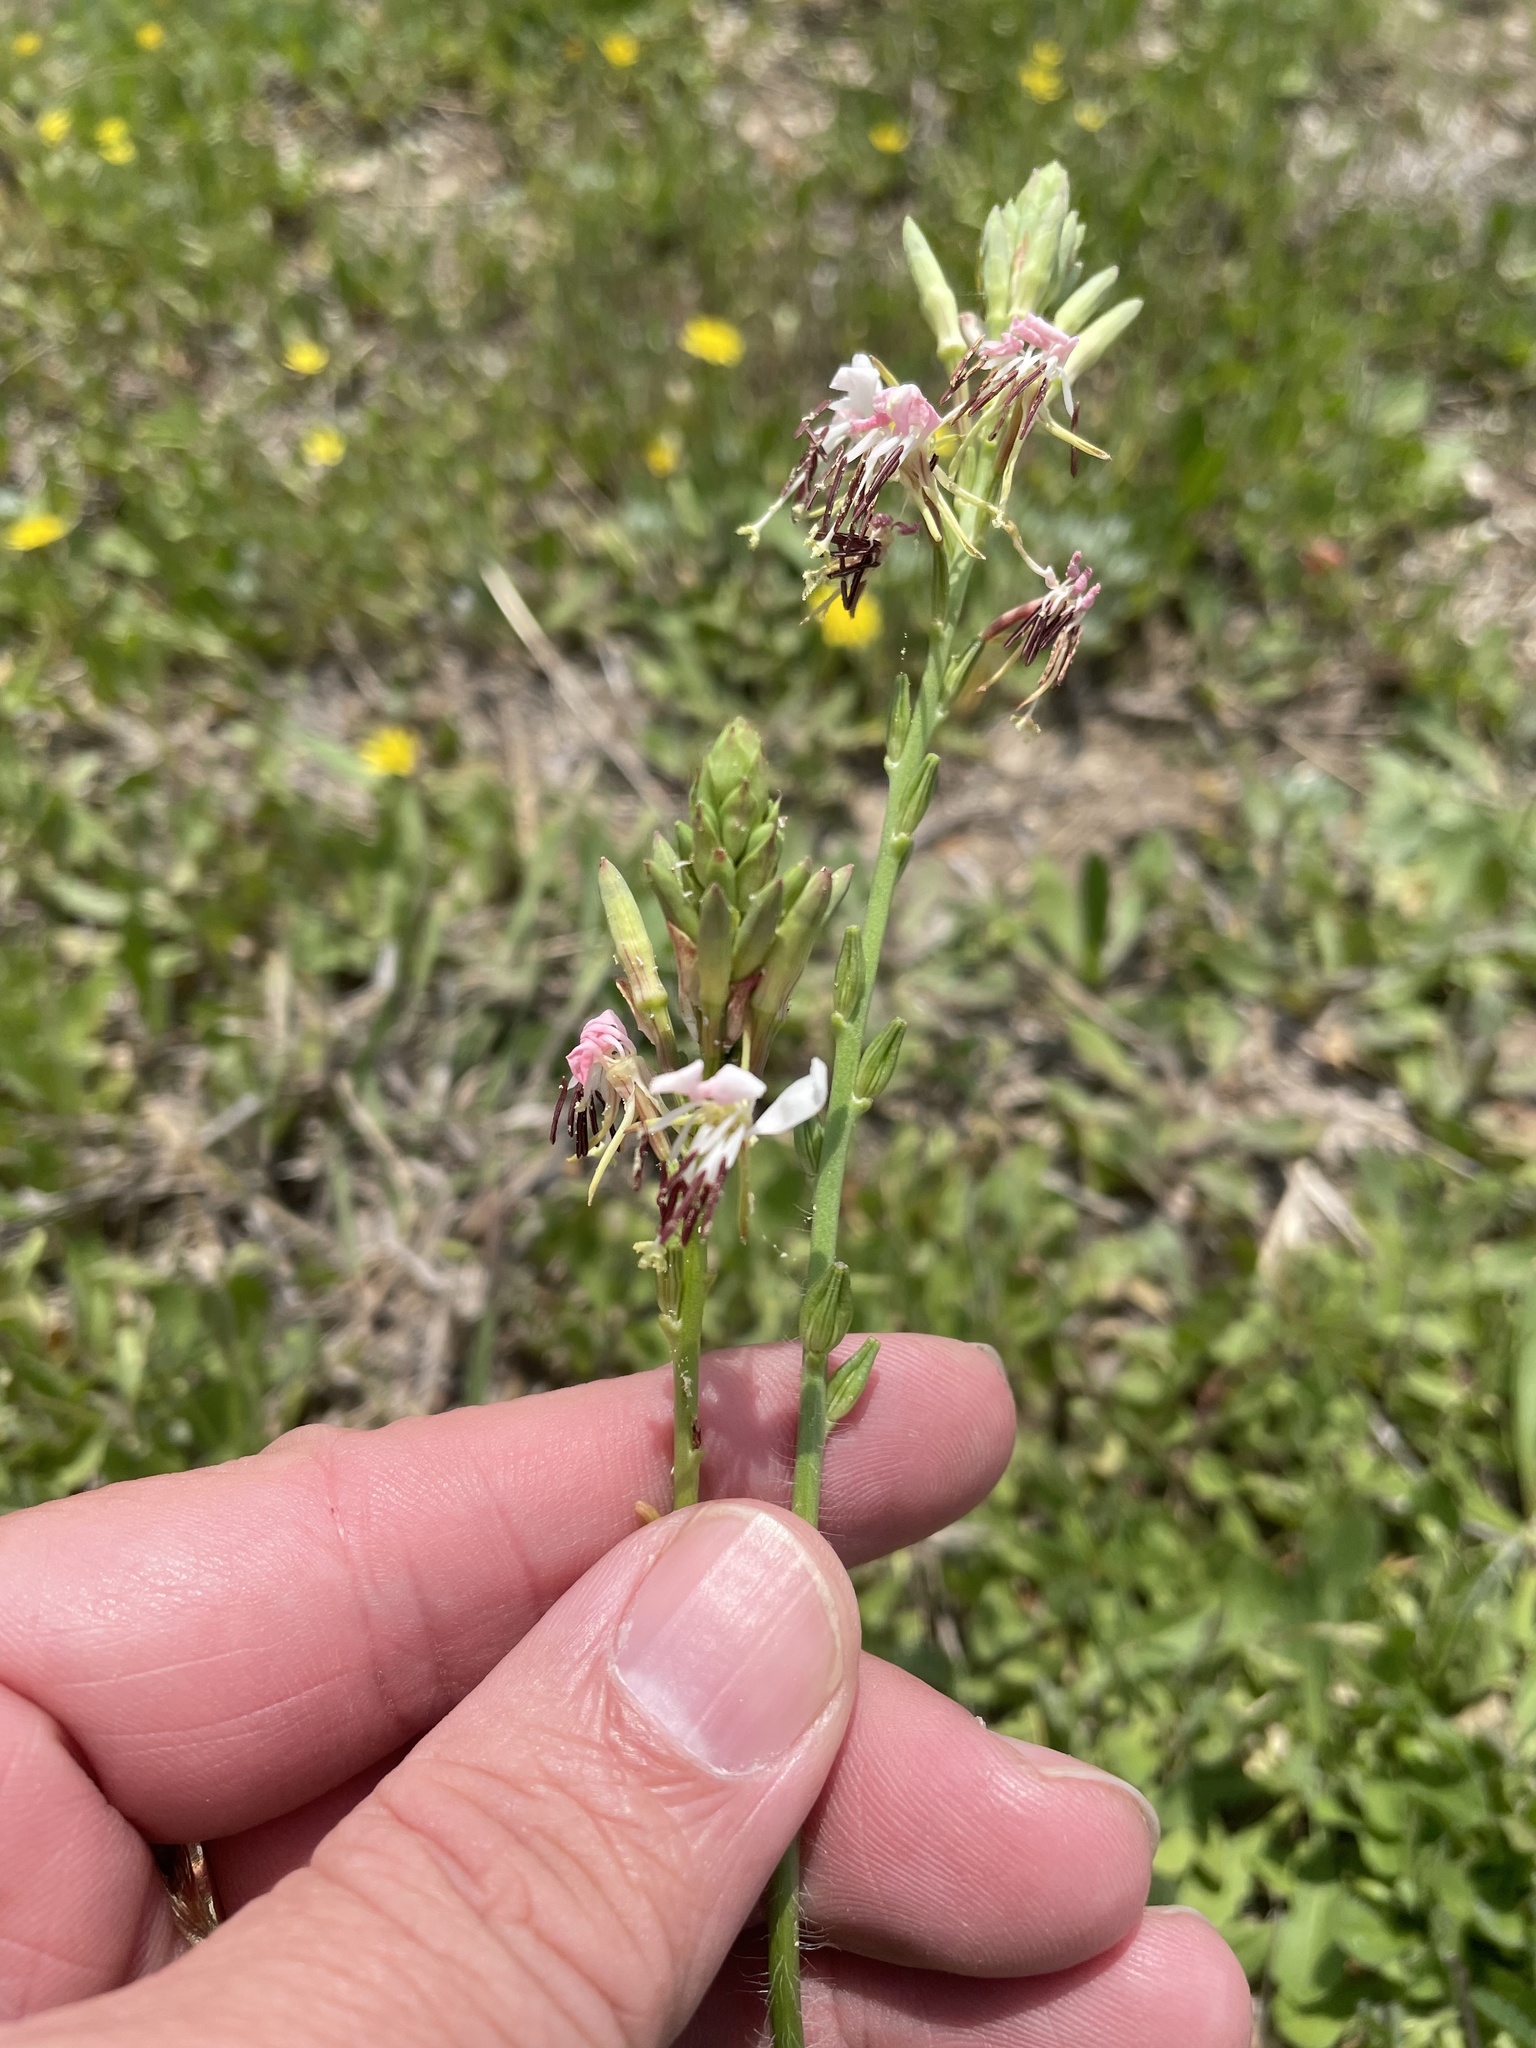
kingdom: Plantae
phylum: Tracheophyta
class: Magnoliopsida
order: Myrtales
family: Onagraceae
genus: Oenothera
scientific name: Oenothera suffulta
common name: Kisses
